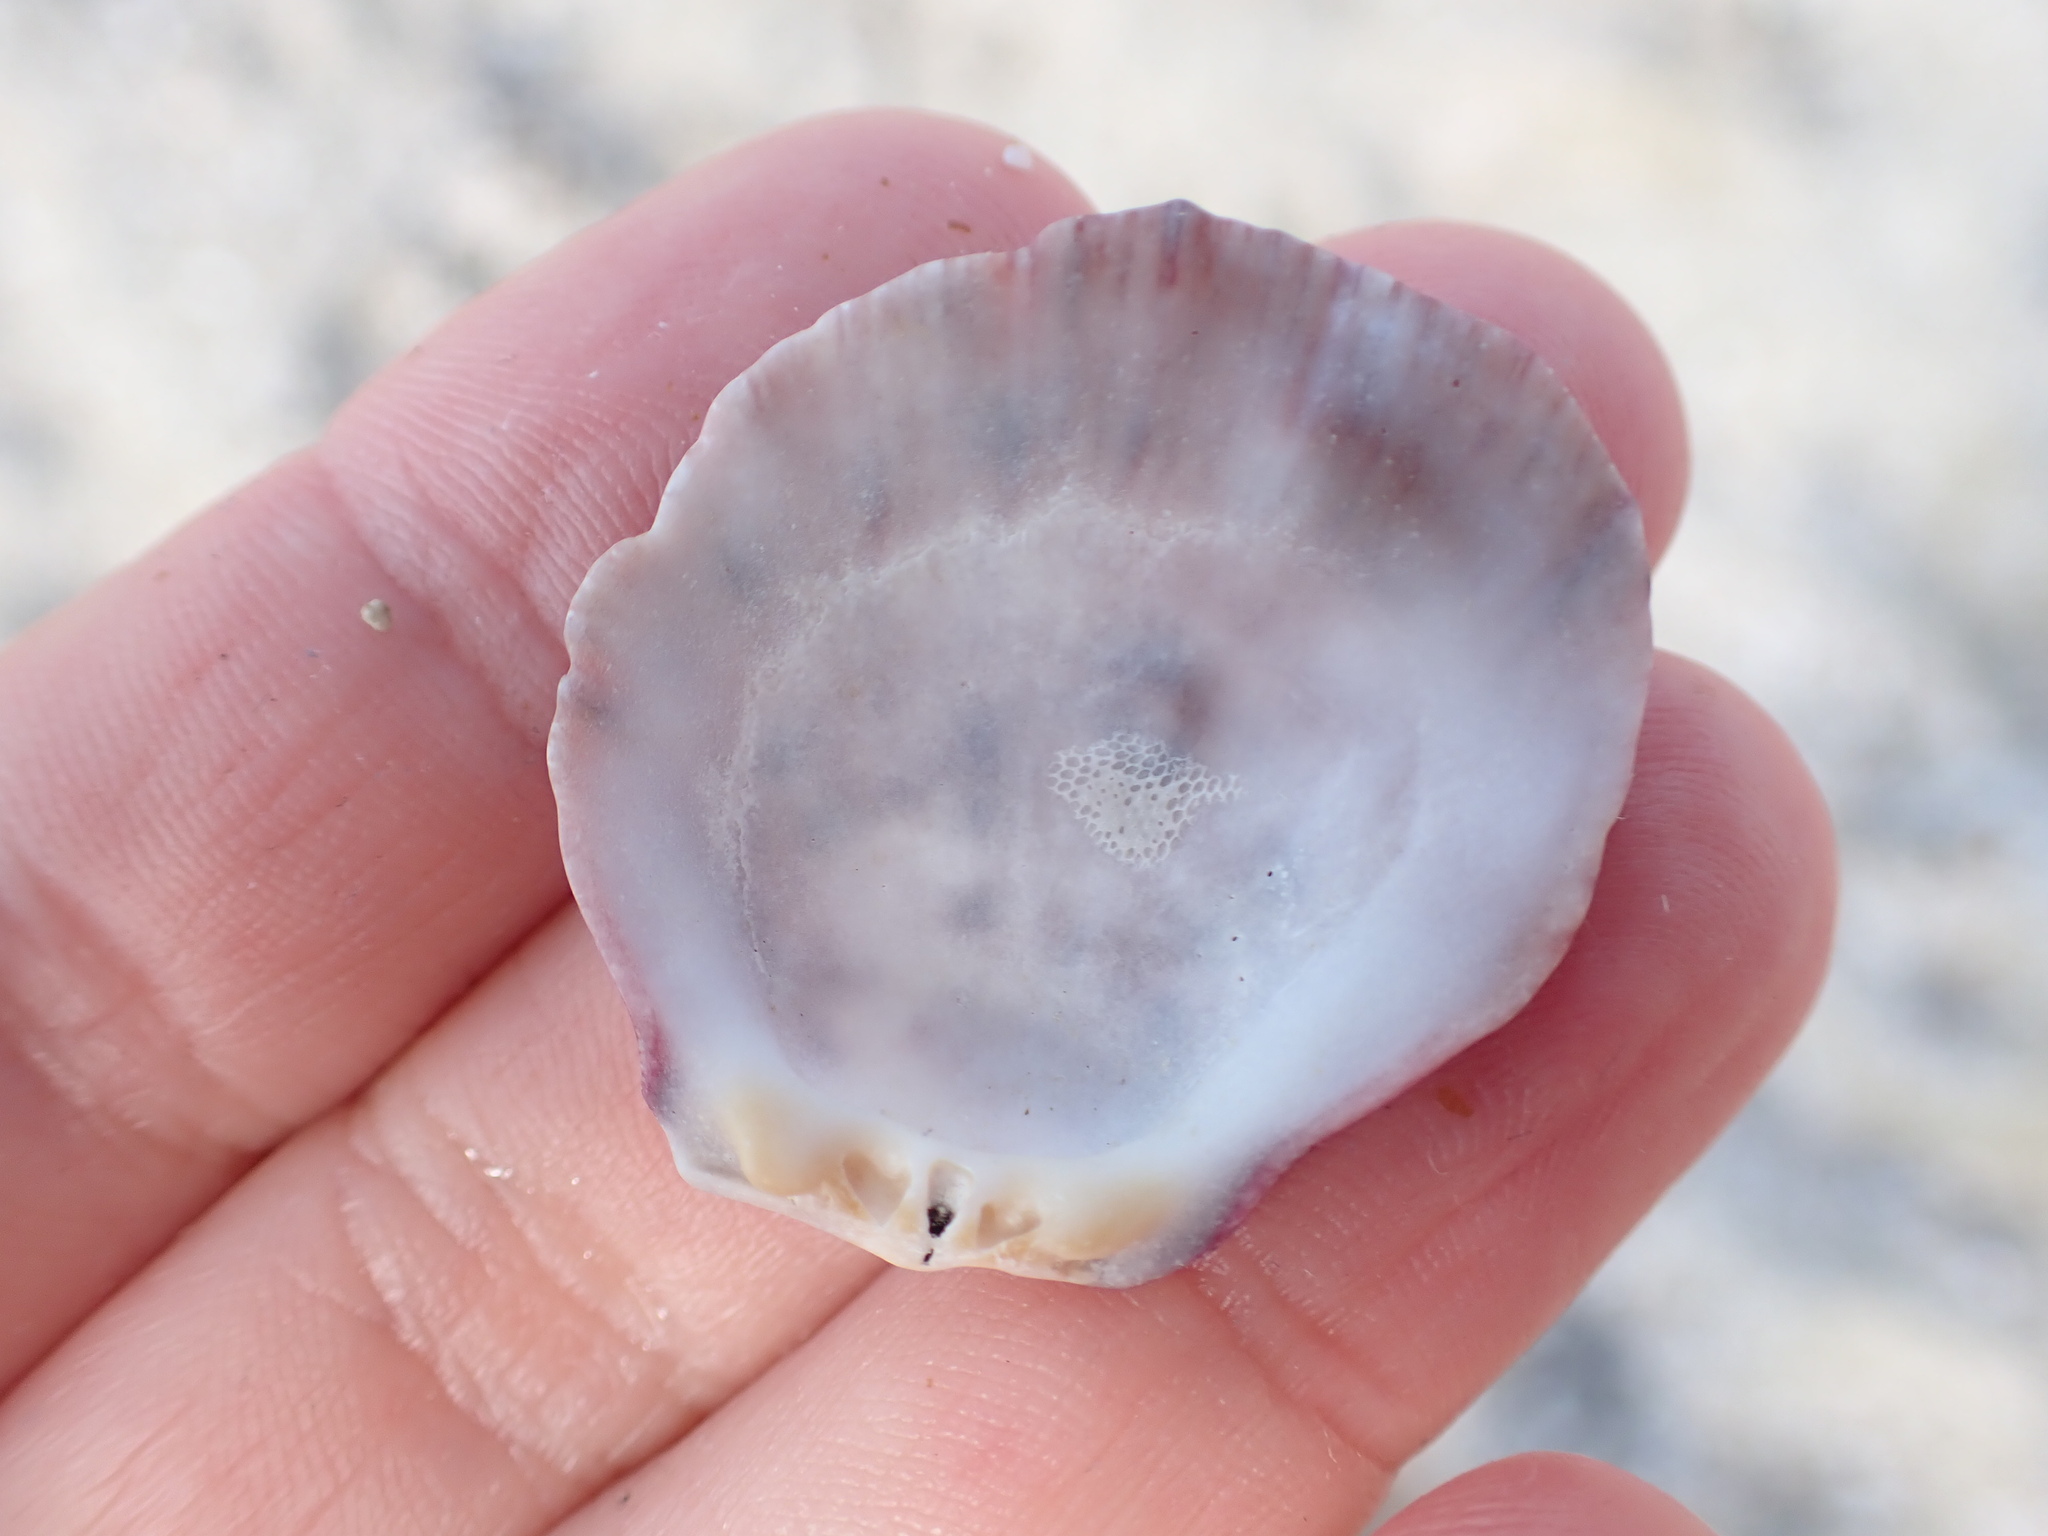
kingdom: Animalia
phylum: Mollusca
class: Bivalvia
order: Pectinida
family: Spondylidae
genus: Spondylus
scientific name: Spondylus gaederopus
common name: European thorny oyster
